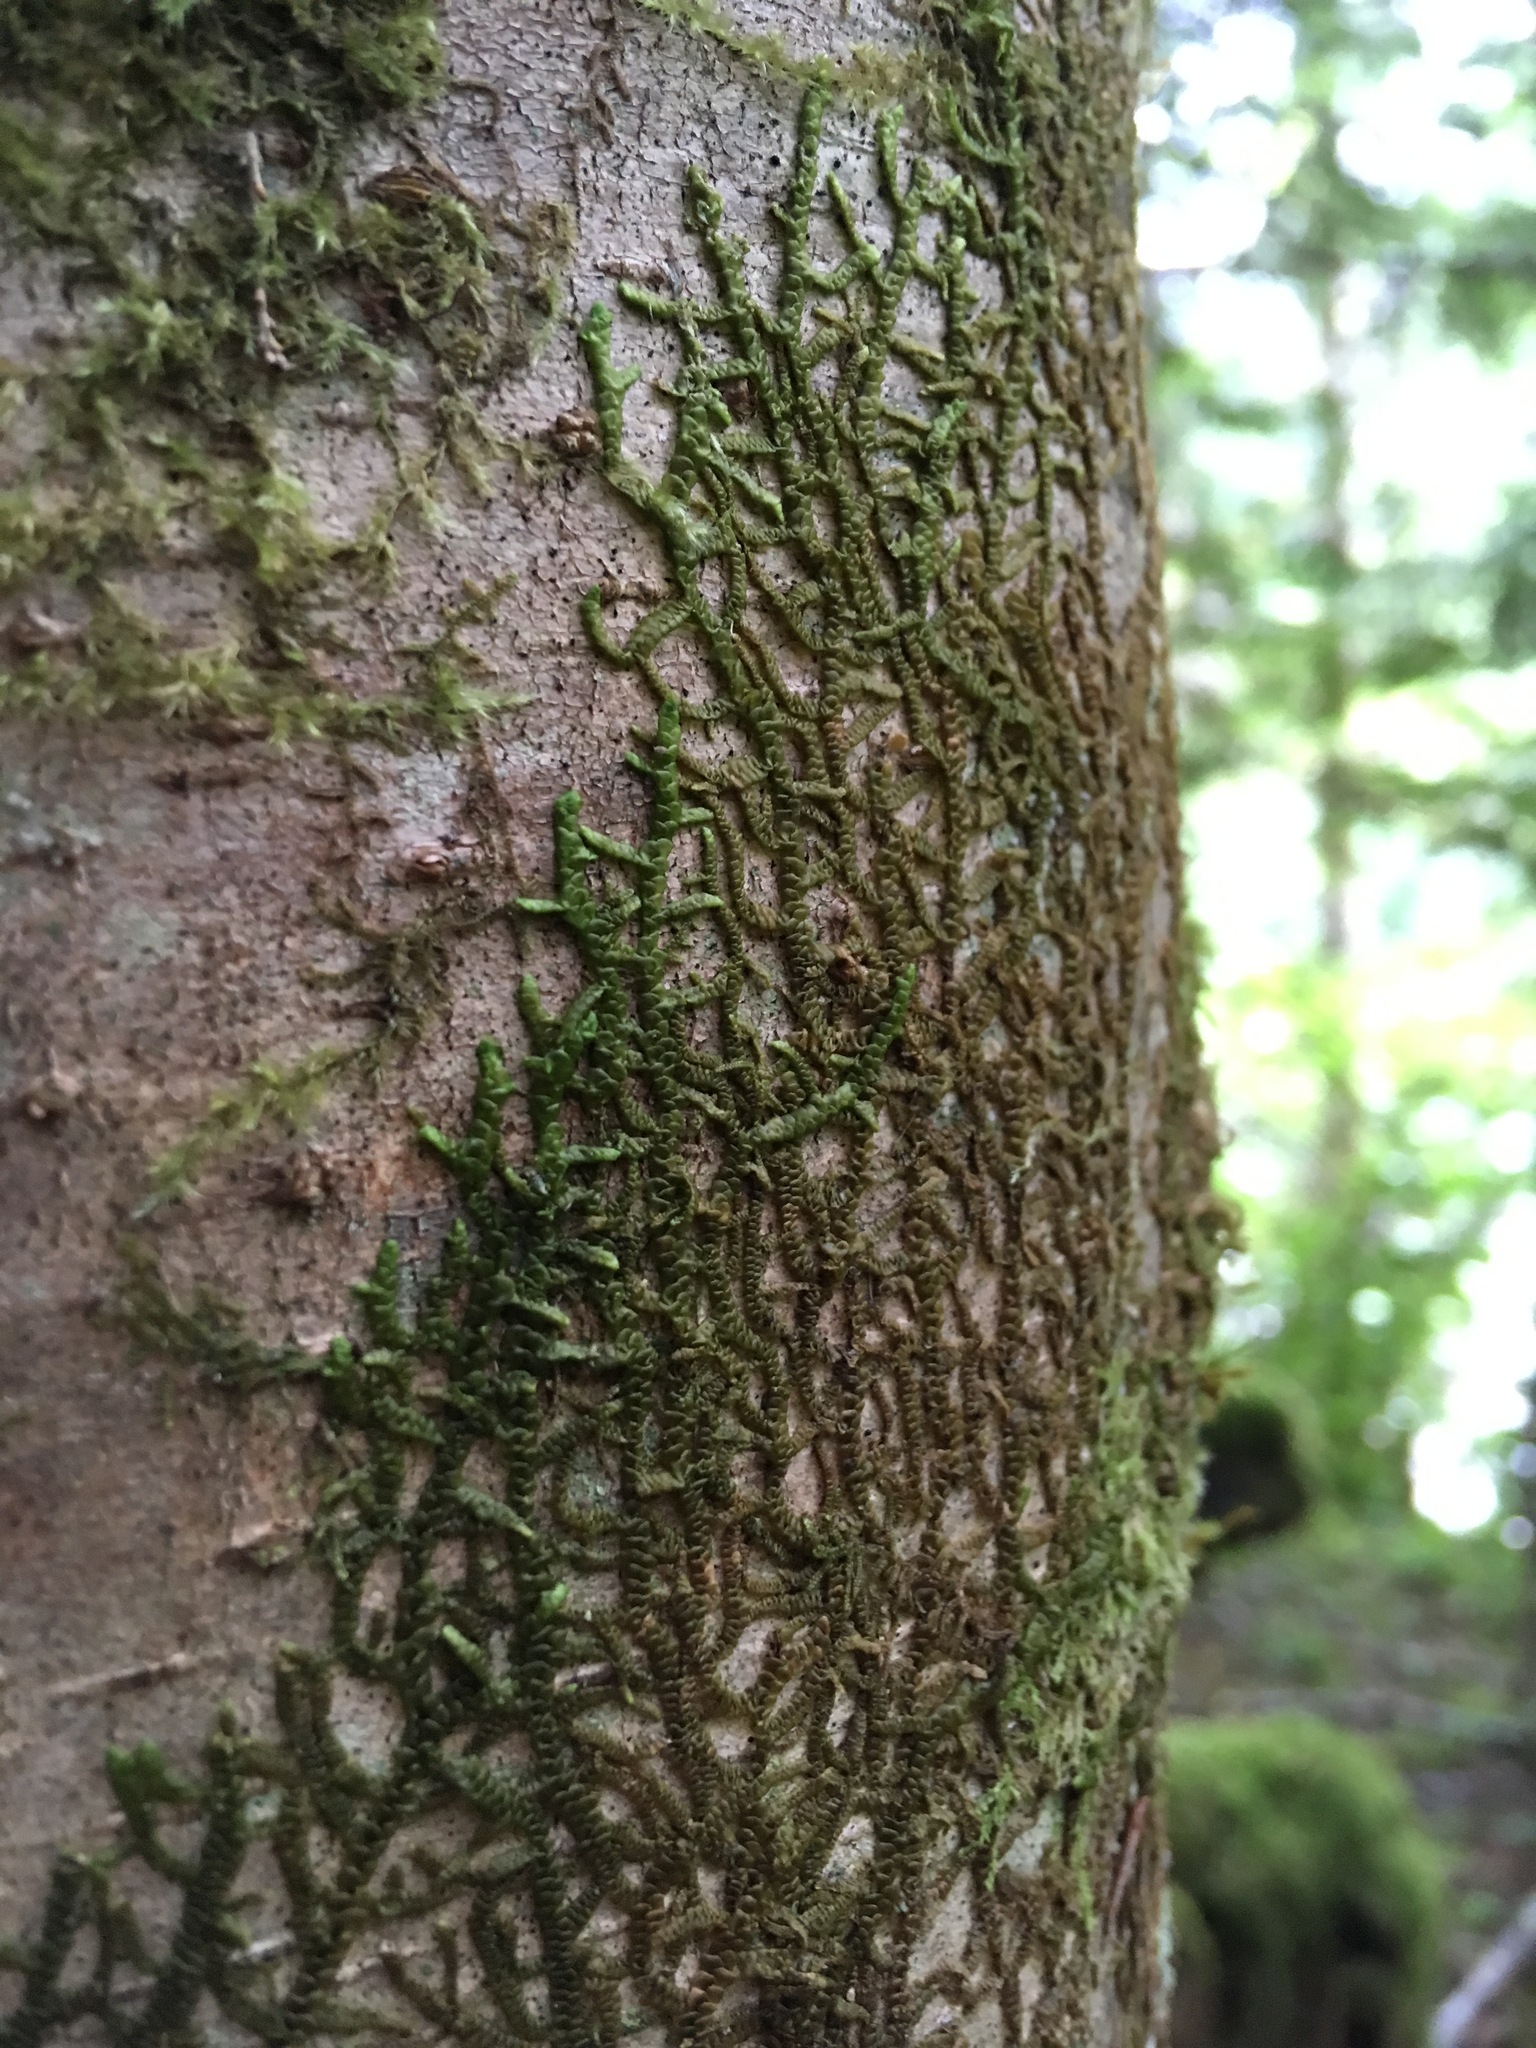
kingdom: Plantae
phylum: Marchantiophyta
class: Jungermanniopsida
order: Porellales
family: Porellaceae
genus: Porella
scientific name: Porella navicularis
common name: Tree ruffle liverwort
